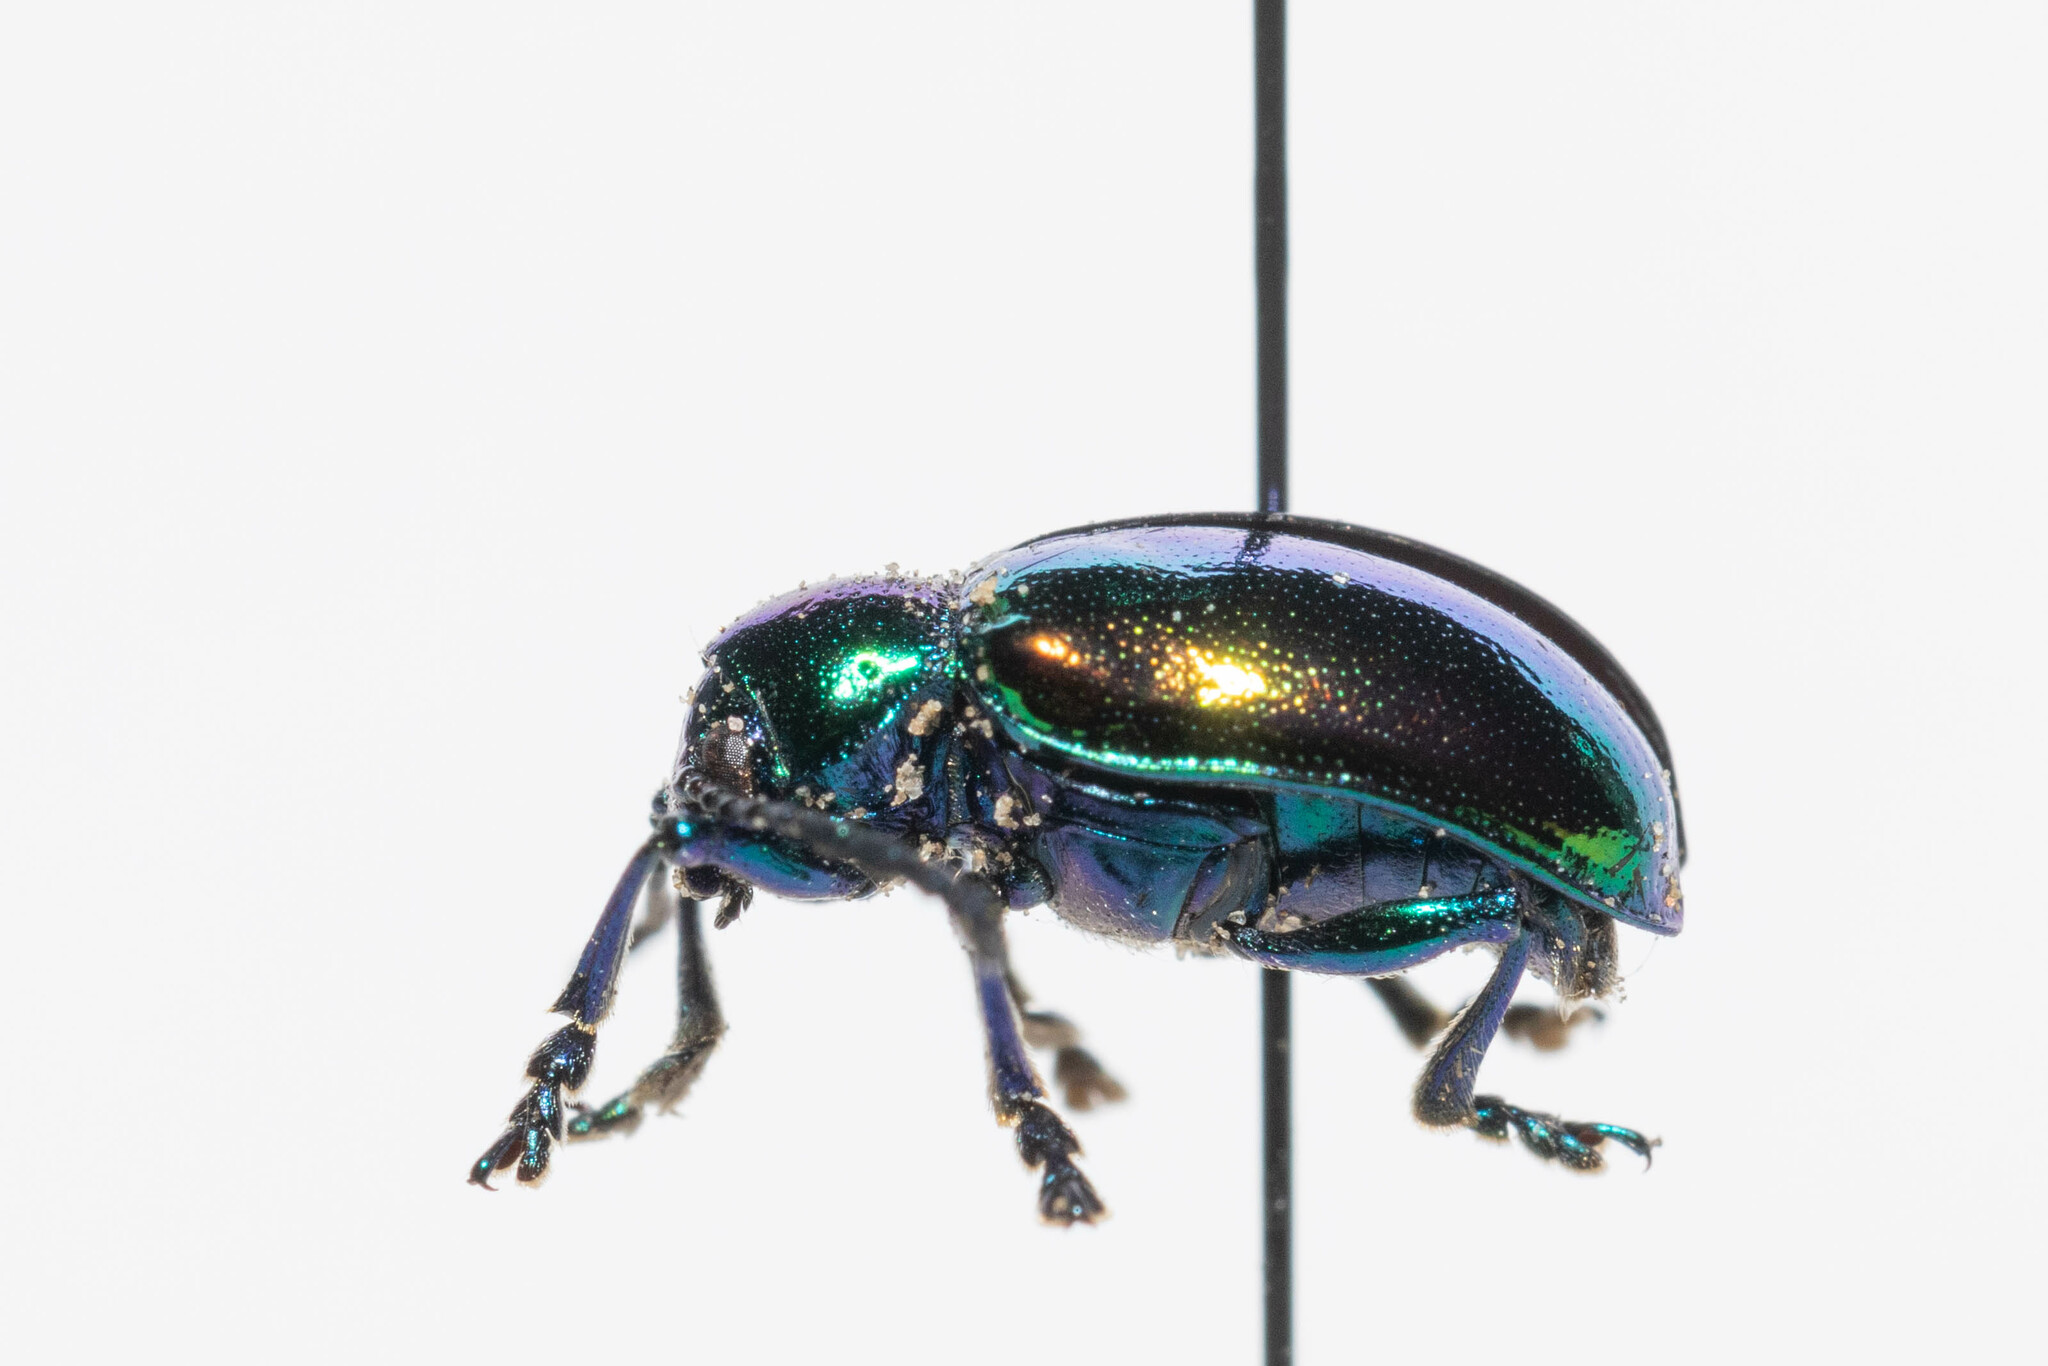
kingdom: Animalia
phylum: Arthropoda
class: Insecta
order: Coleoptera
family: Chrysomelidae
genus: Chrysochus
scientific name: Chrysochus auratus
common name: Dogbane leaf beetle
